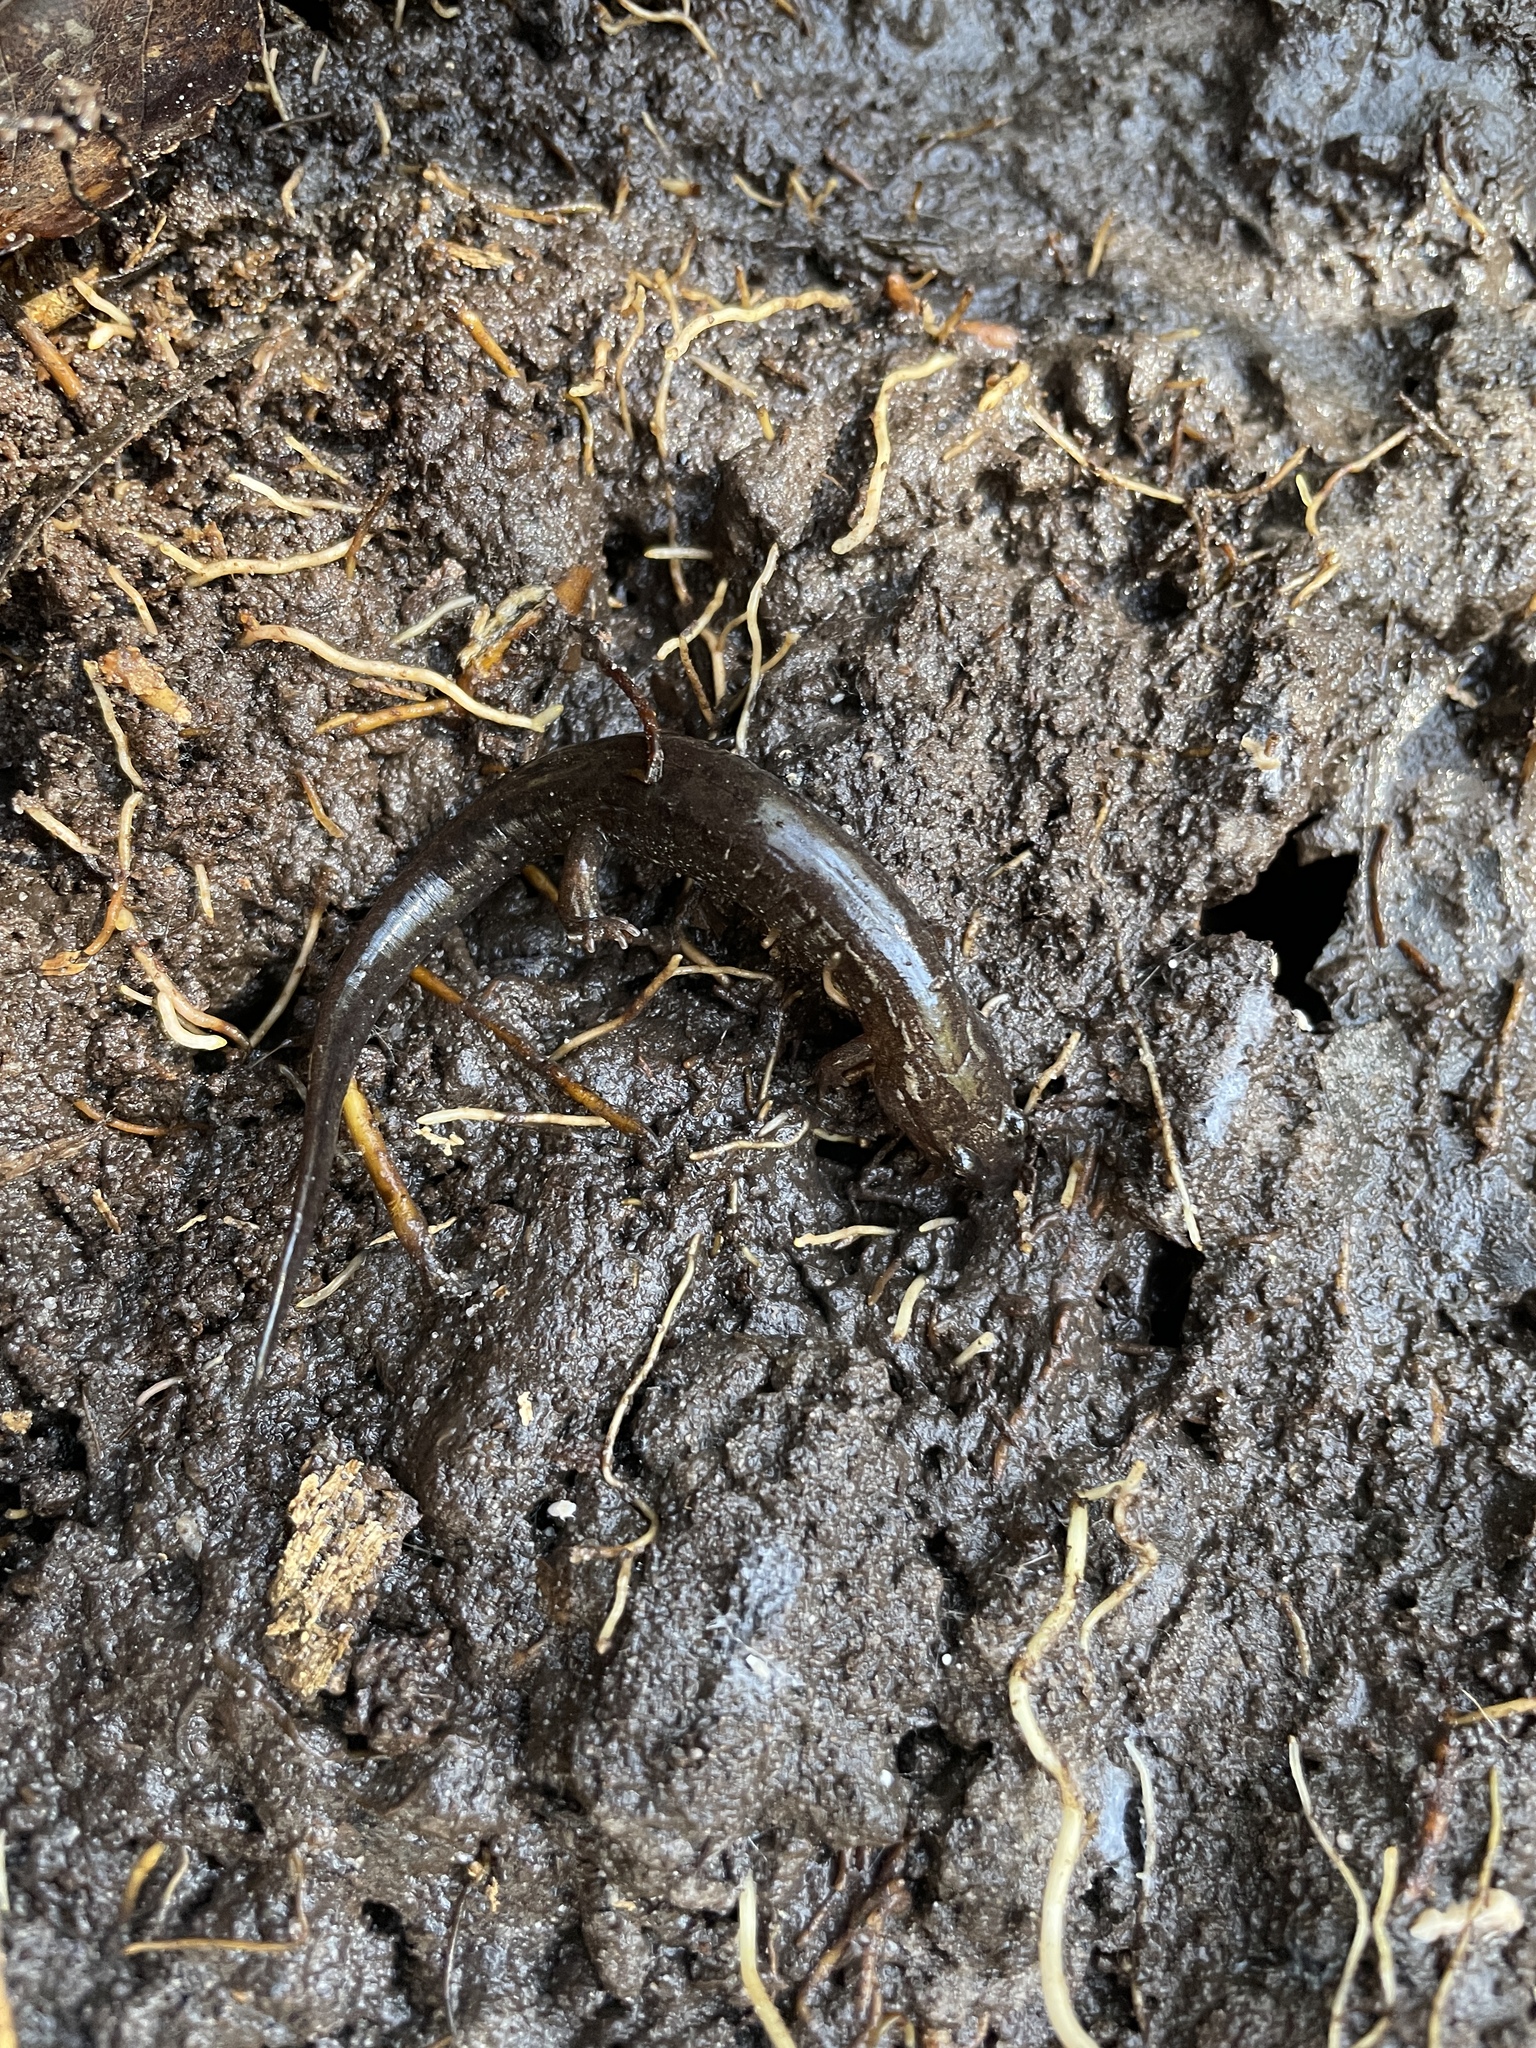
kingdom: Animalia
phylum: Chordata
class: Amphibia
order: Caudata
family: Plethodontidae
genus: Desmognathus
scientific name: Desmognathus conanti
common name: Spotted dusky salamander
